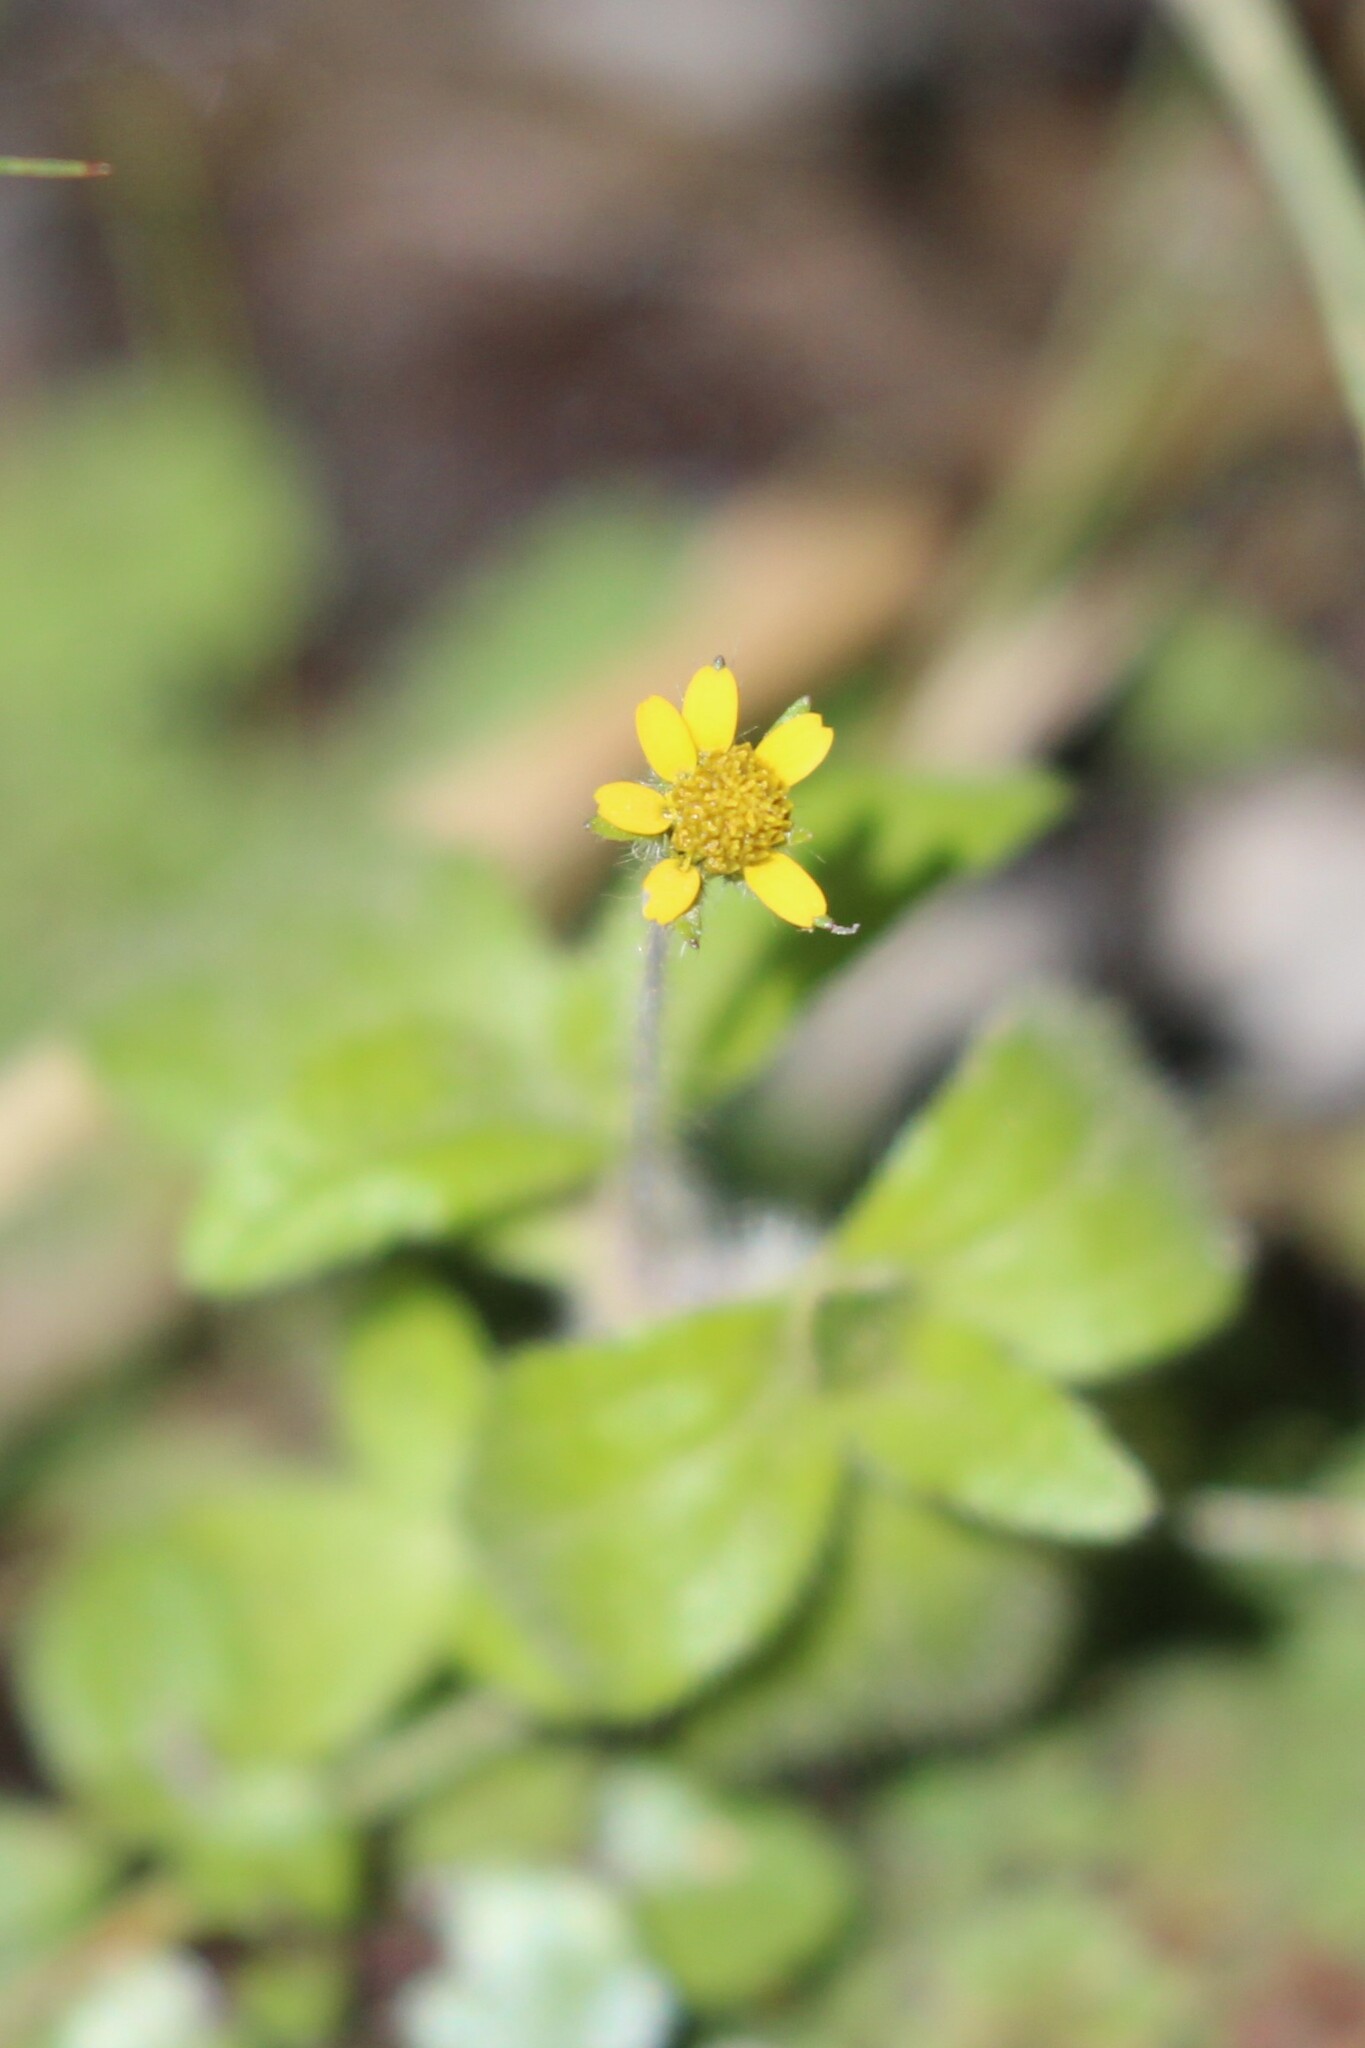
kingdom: Plantae
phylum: Tracheophyta
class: Magnoliopsida
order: Asterales
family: Asteraceae
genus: Jaegeria
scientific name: Jaegeria hirta
